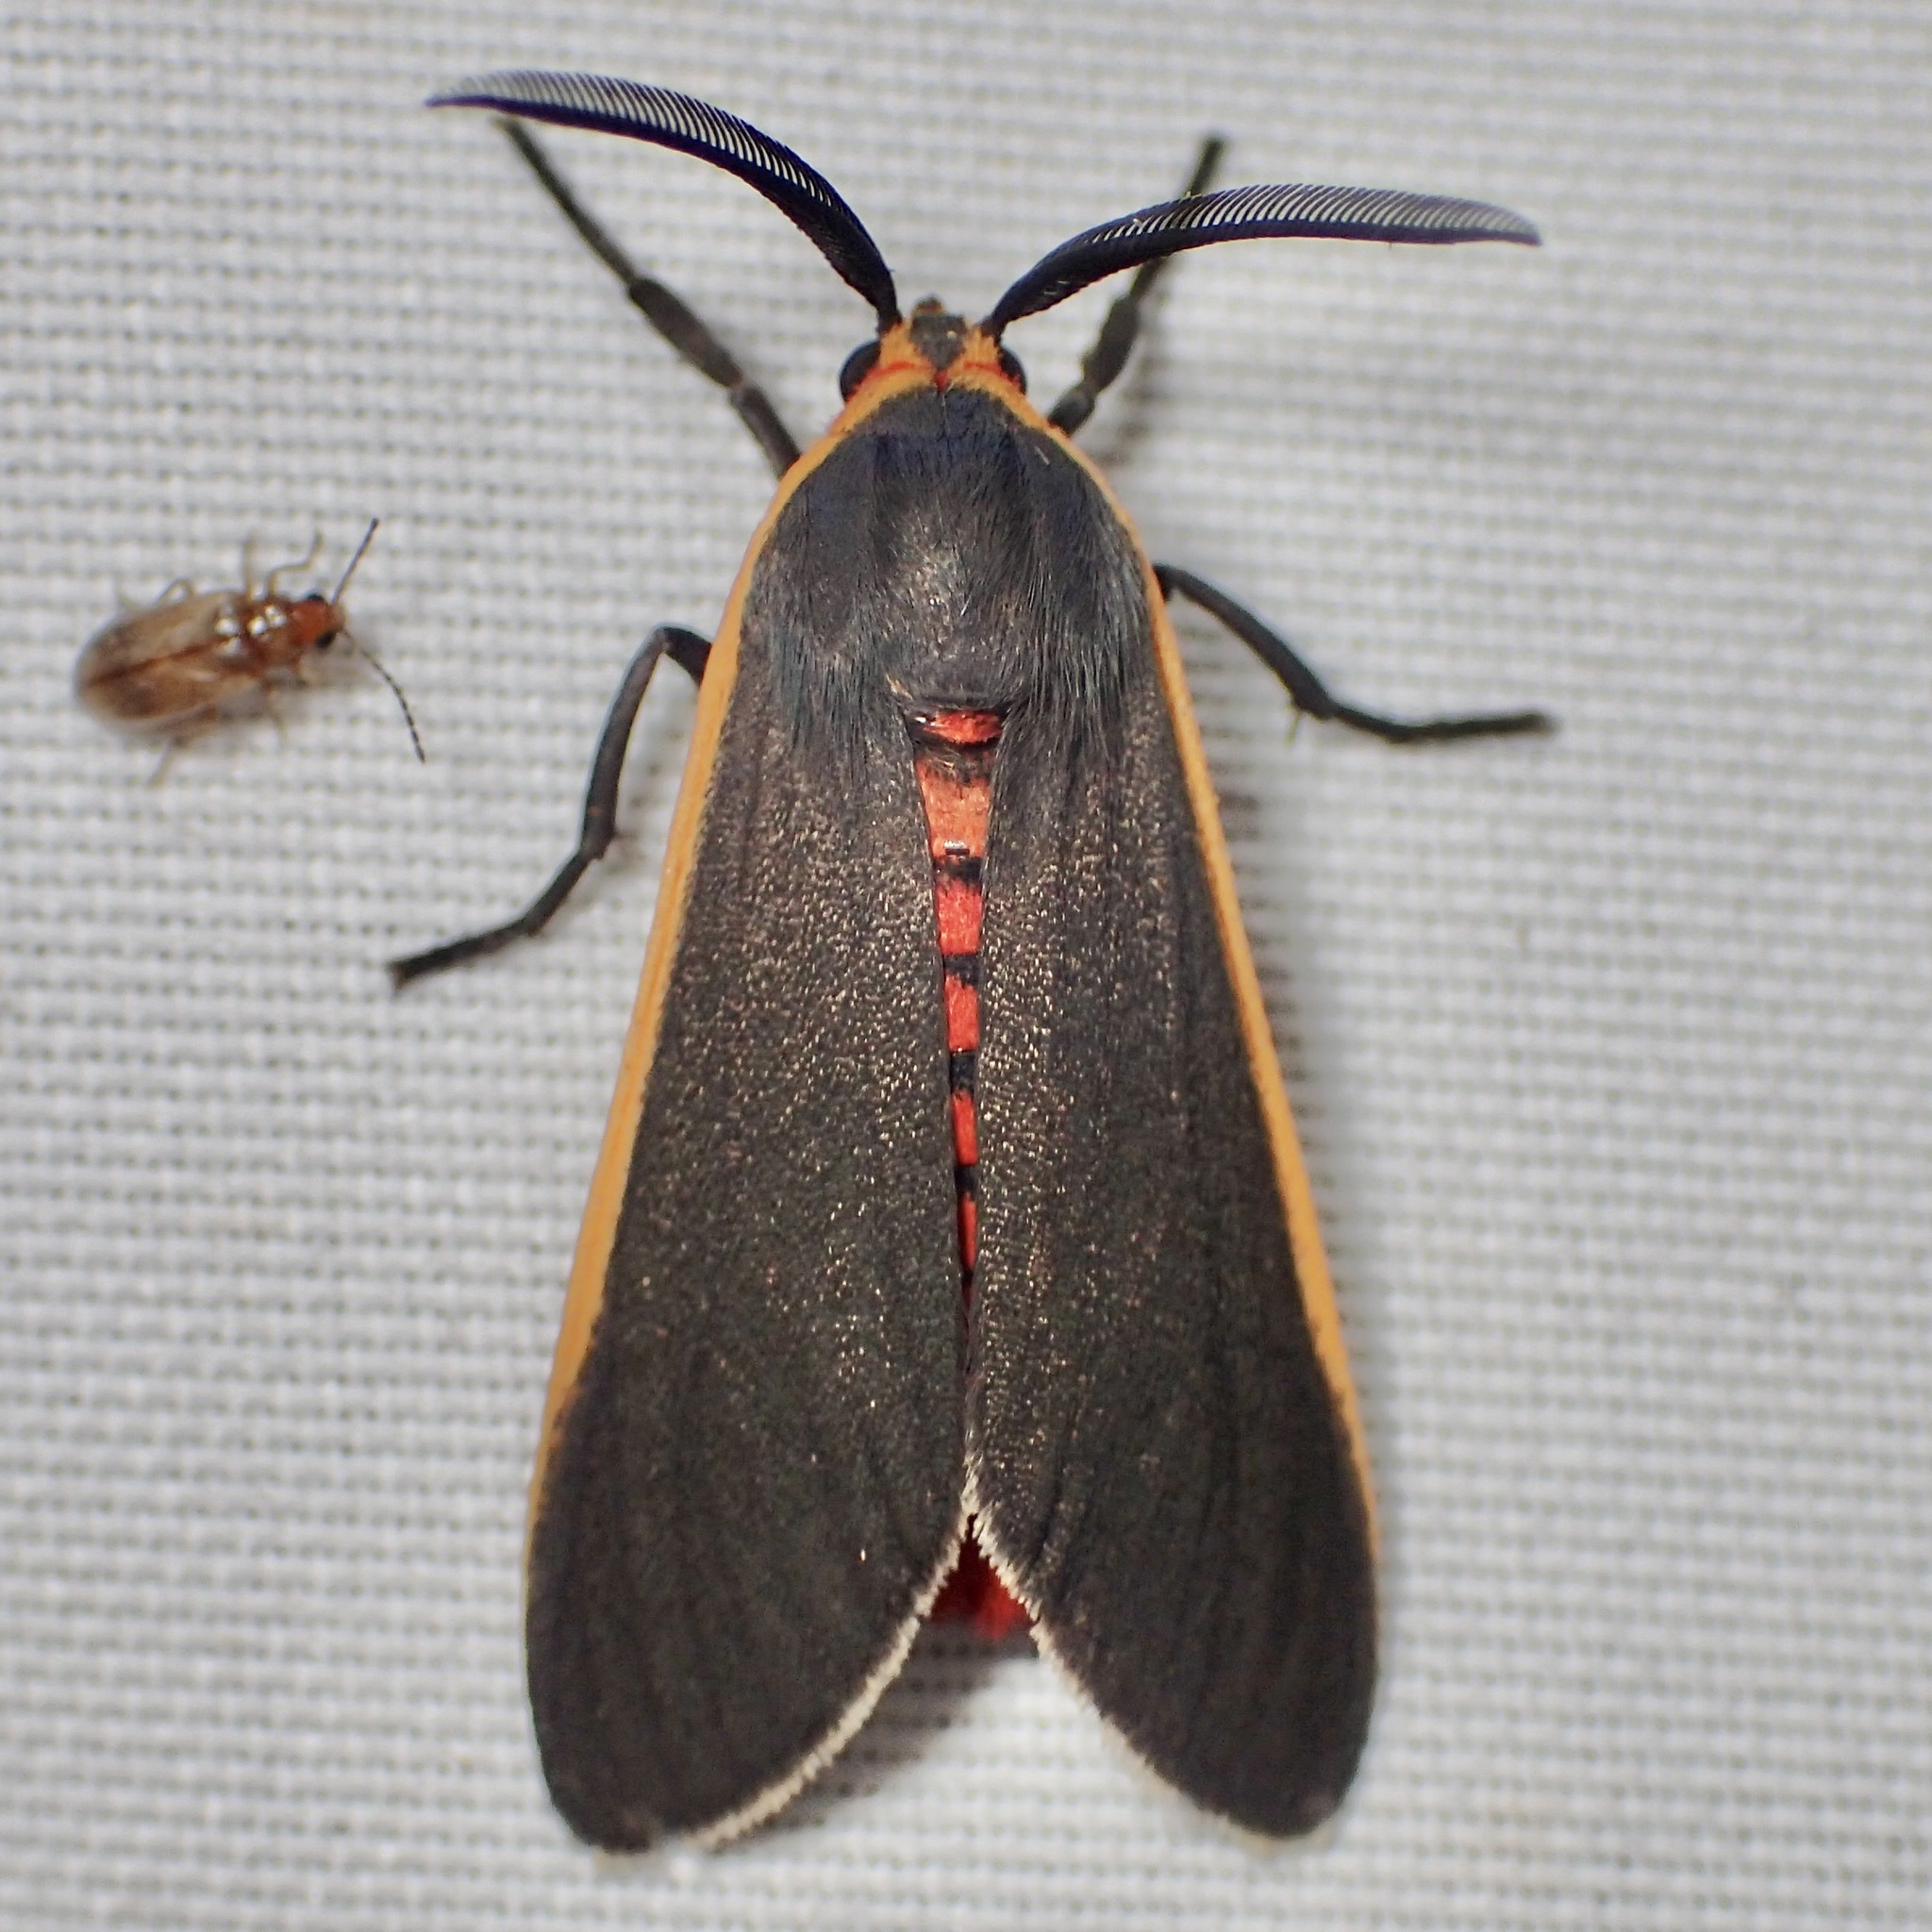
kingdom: Animalia
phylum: Arthropoda
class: Insecta
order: Lepidoptera
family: Erebidae
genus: Euchaetes
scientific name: Euchaetes antica
